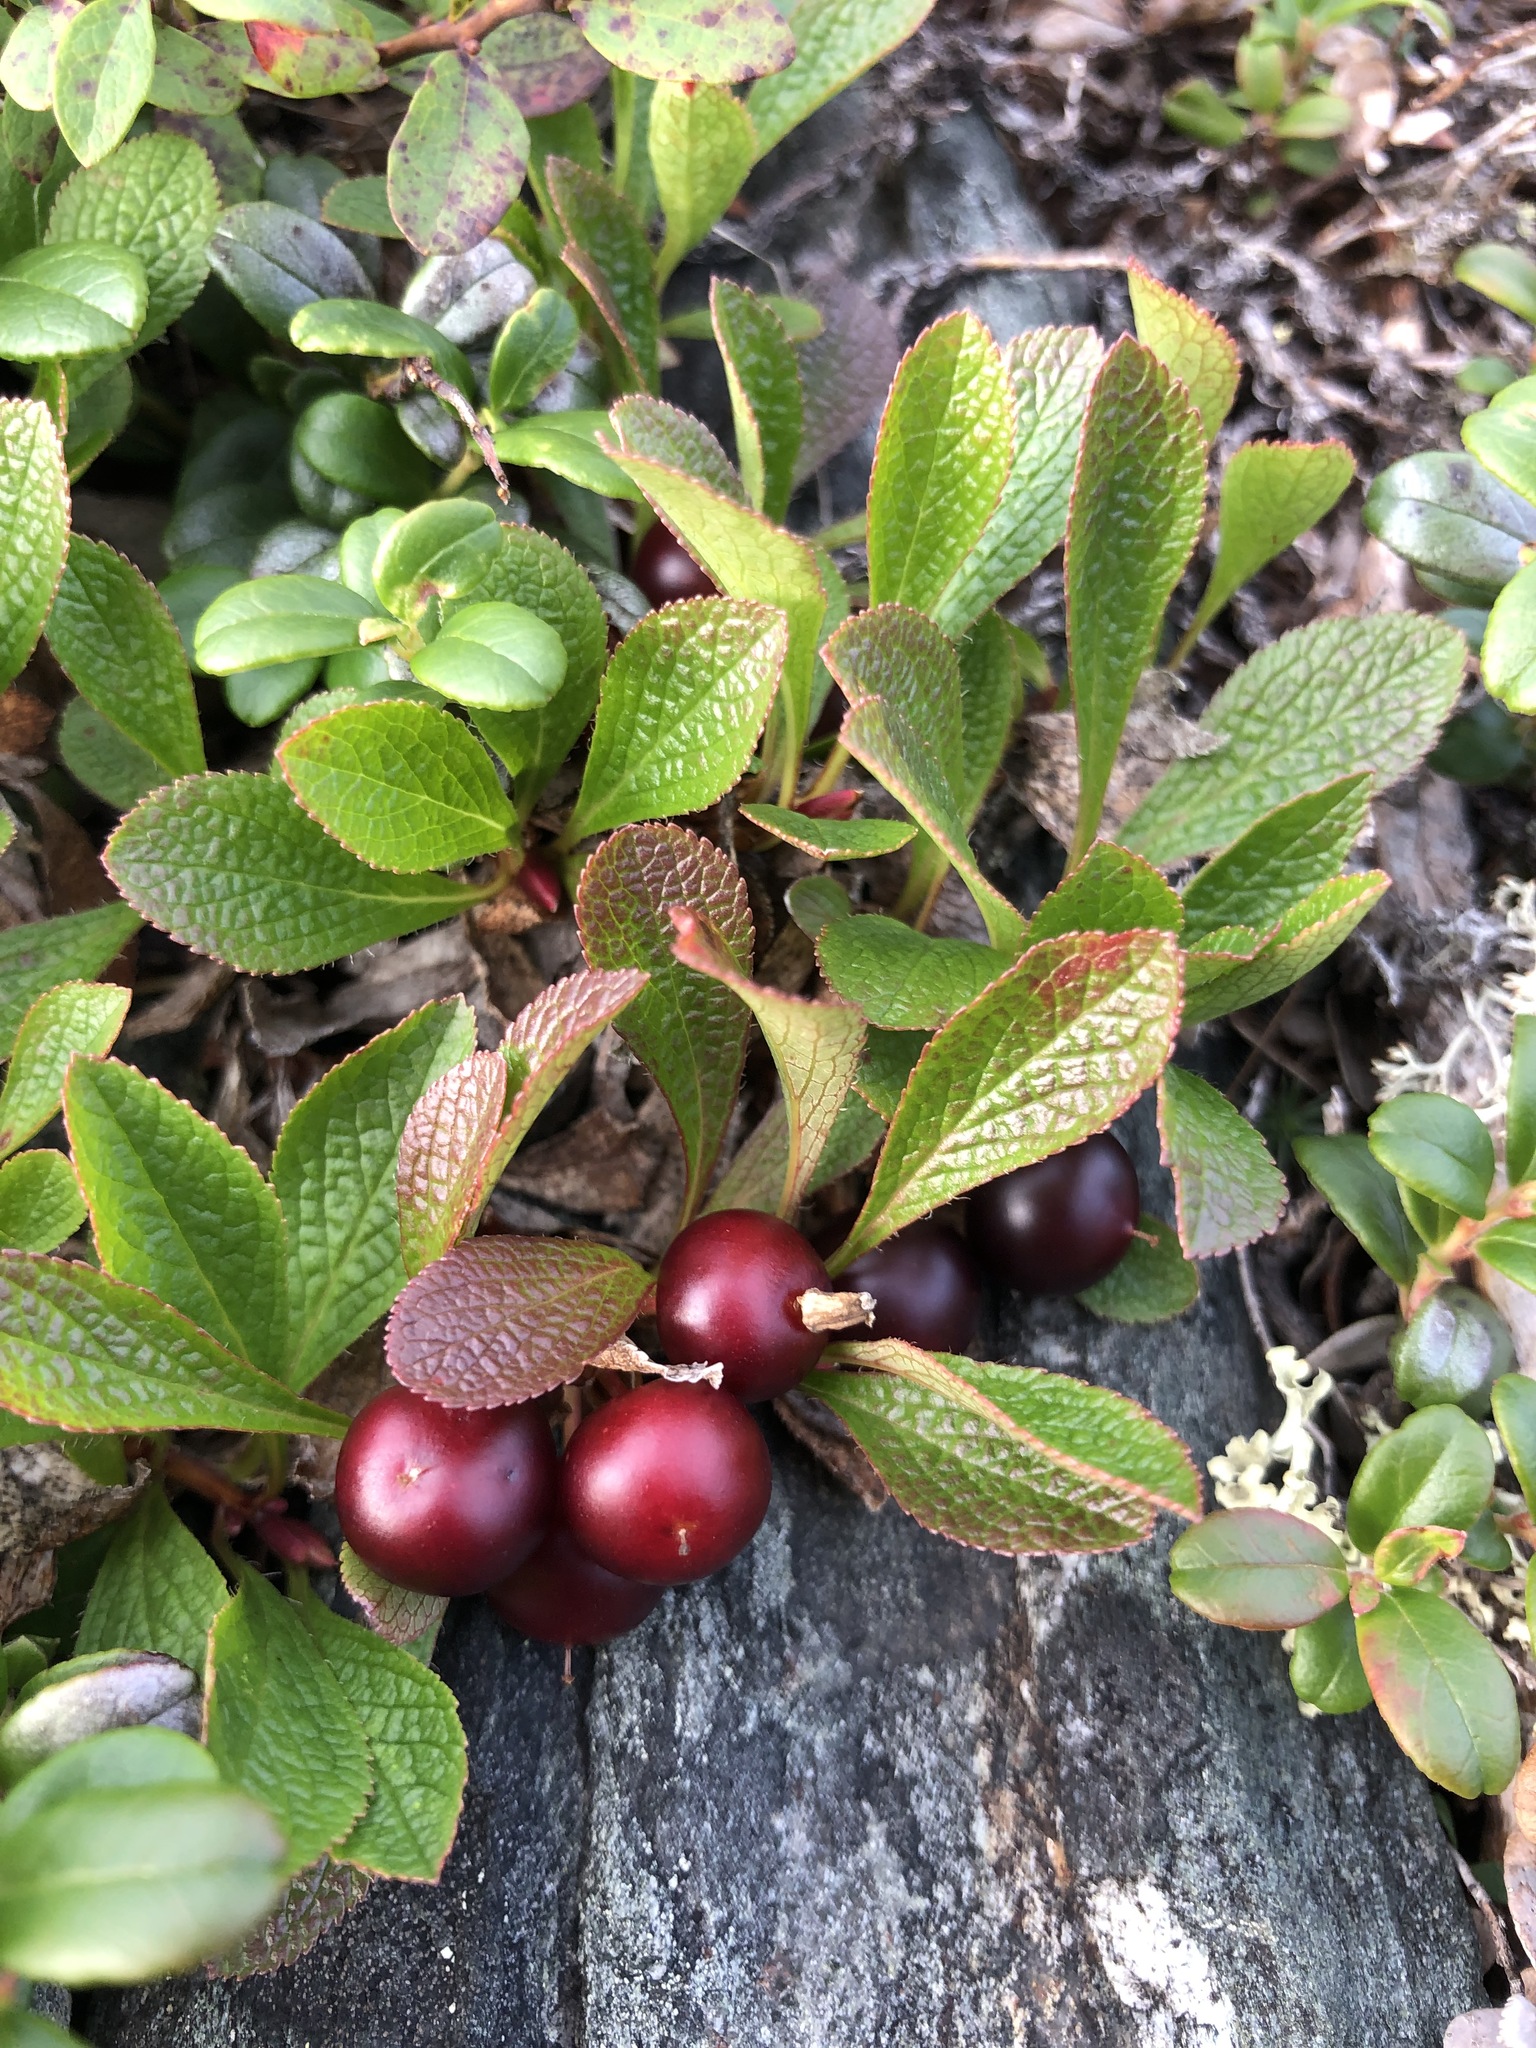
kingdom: Plantae
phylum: Tracheophyta
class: Magnoliopsida
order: Ericales
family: Ericaceae
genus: Arctostaphylos
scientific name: Arctostaphylos alpinus
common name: Alpine bearberry
